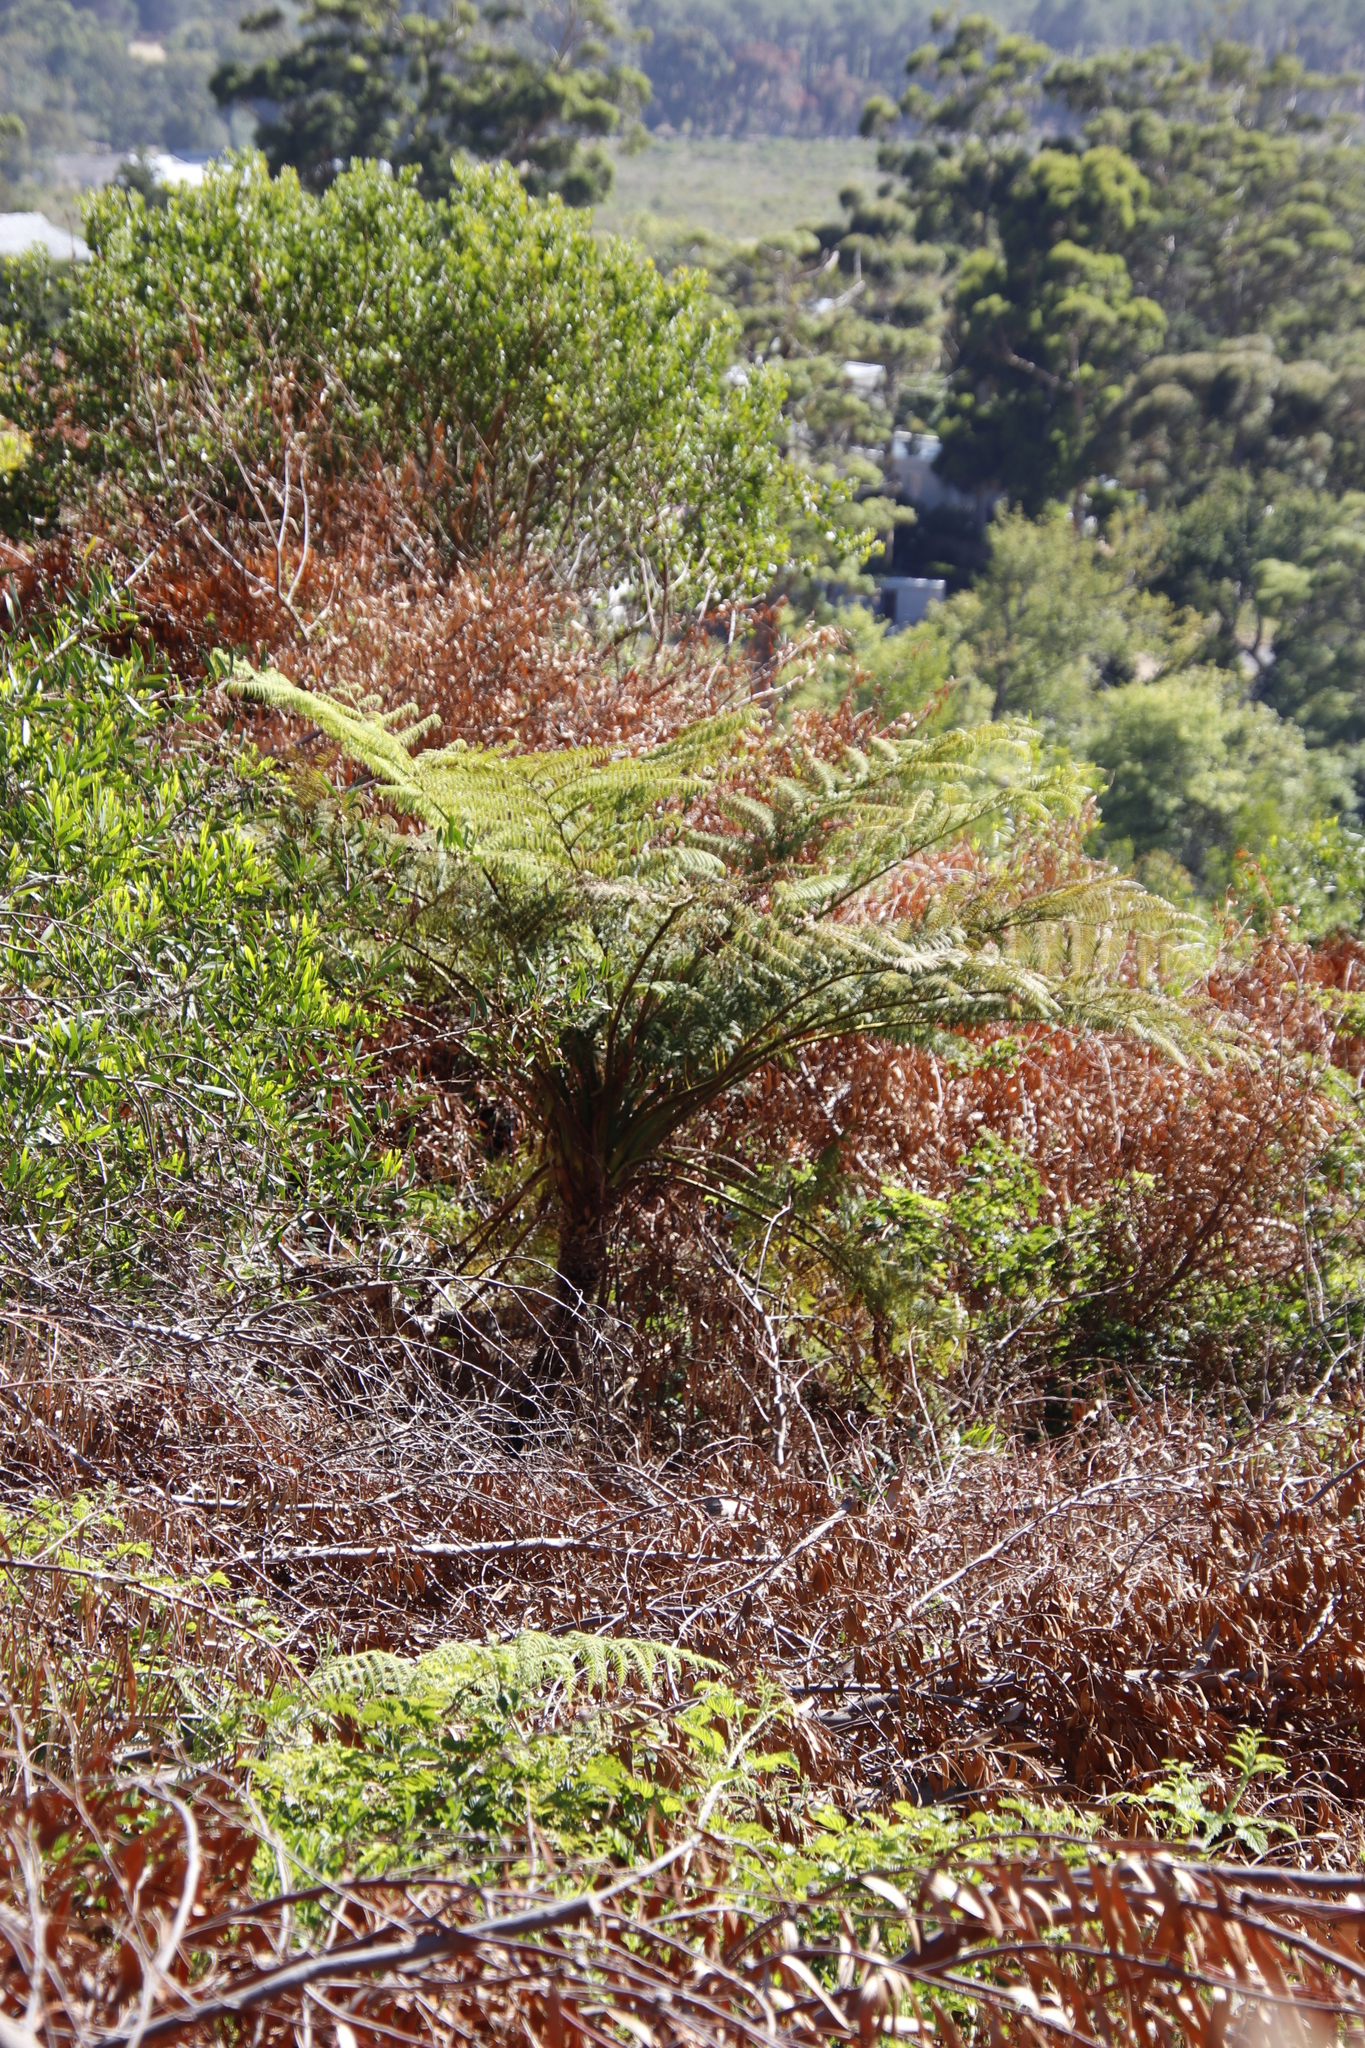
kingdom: Plantae
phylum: Tracheophyta
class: Polypodiopsida
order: Cyatheales
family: Cyatheaceae
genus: Sphaeropteris
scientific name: Sphaeropteris cooperi
